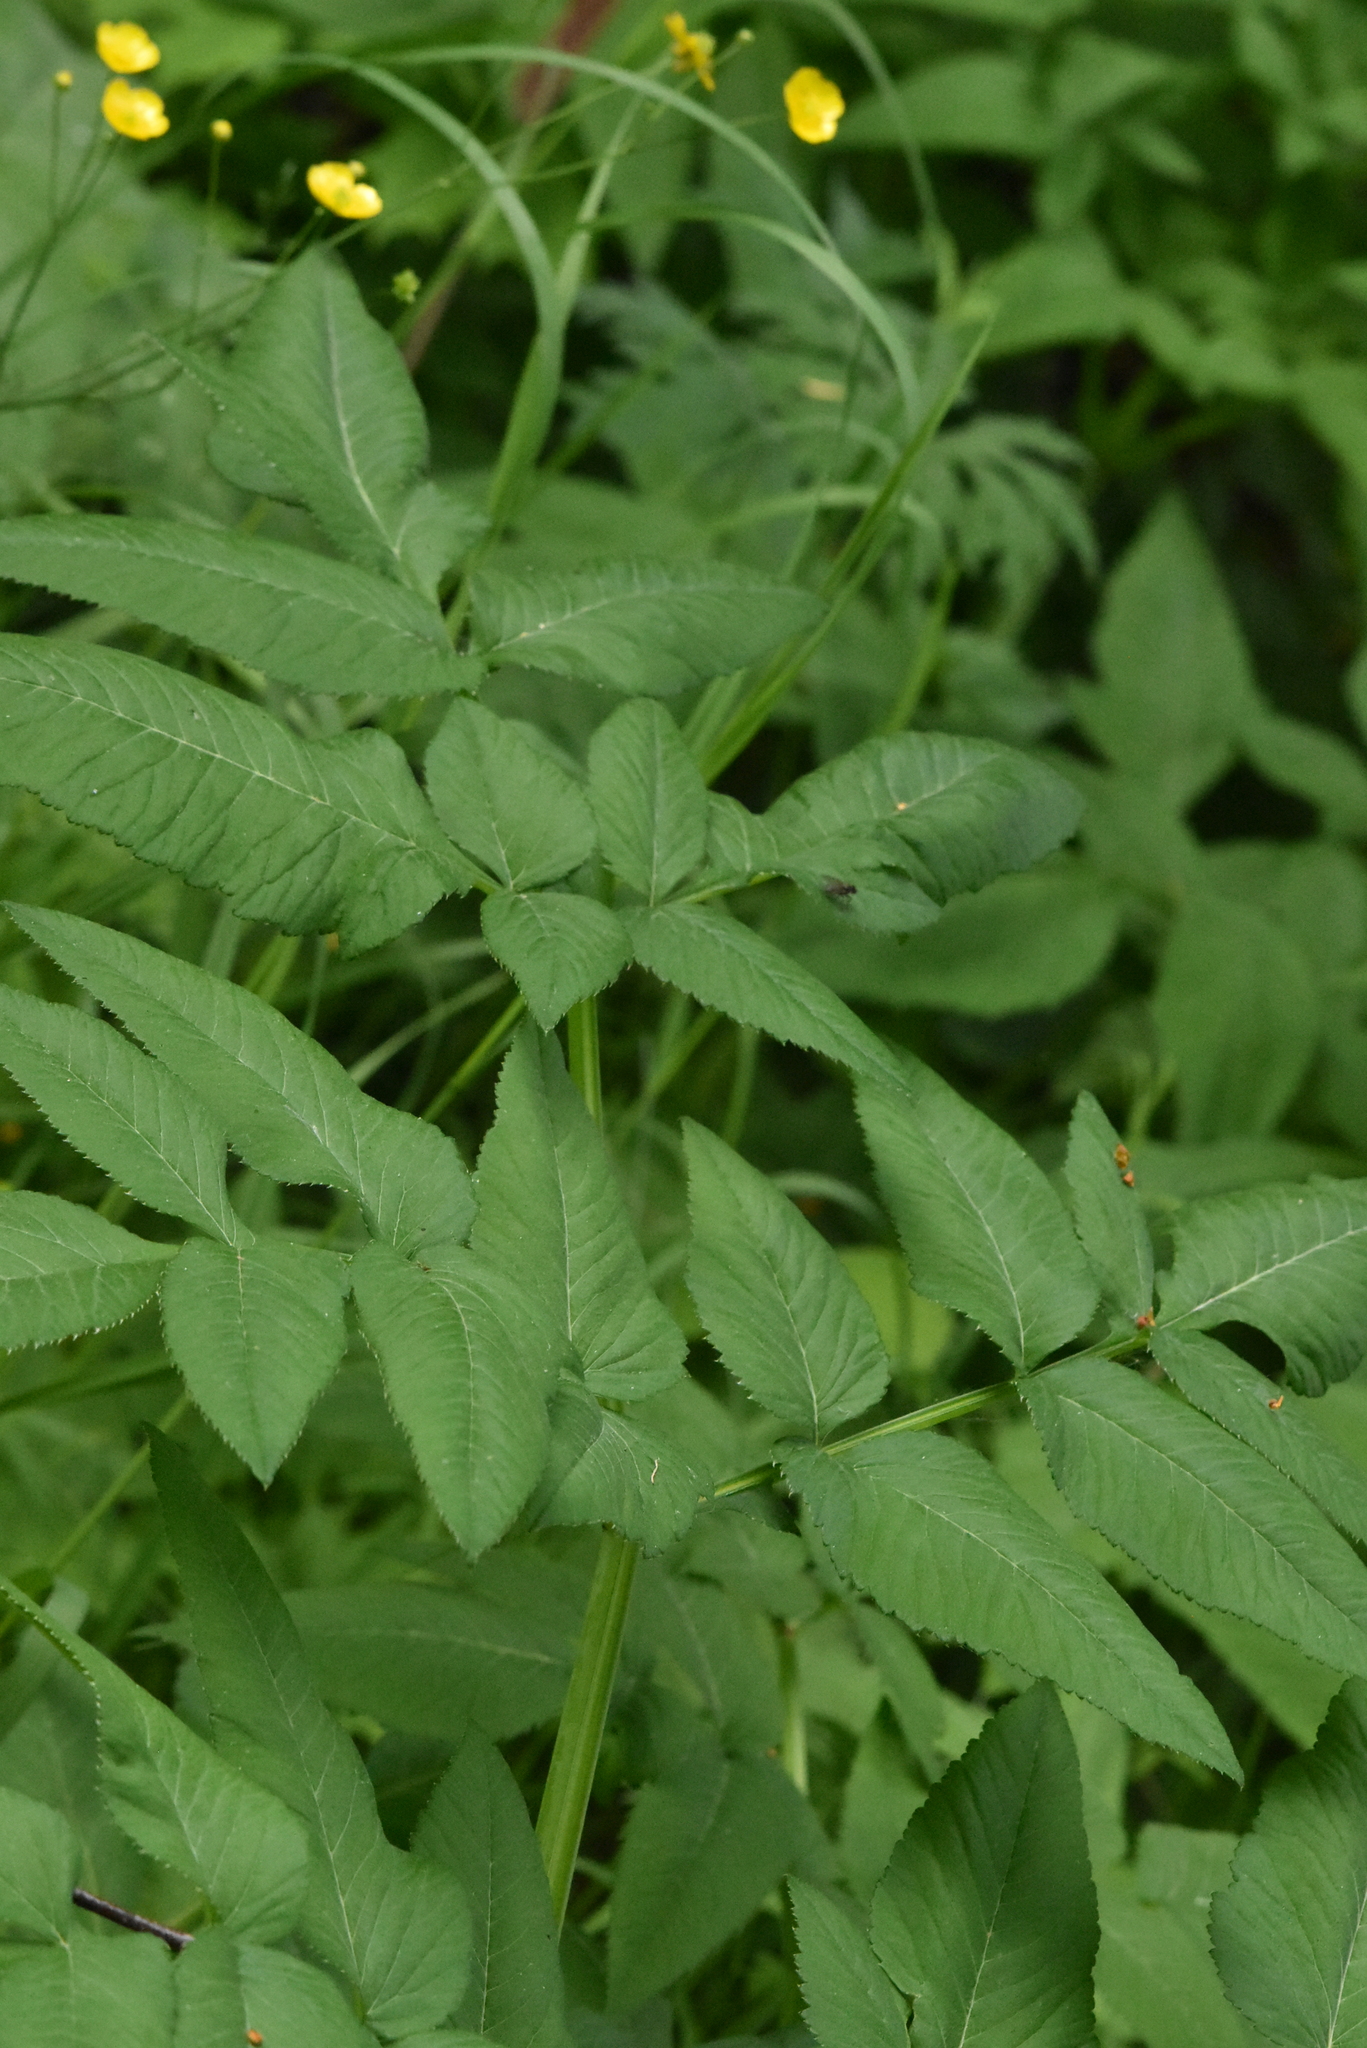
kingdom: Plantae
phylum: Tracheophyta
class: Magnoliopsida
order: Apiales
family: Apiaceae
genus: Angelica
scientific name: Angelica sylvestris
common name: Wild angelica
